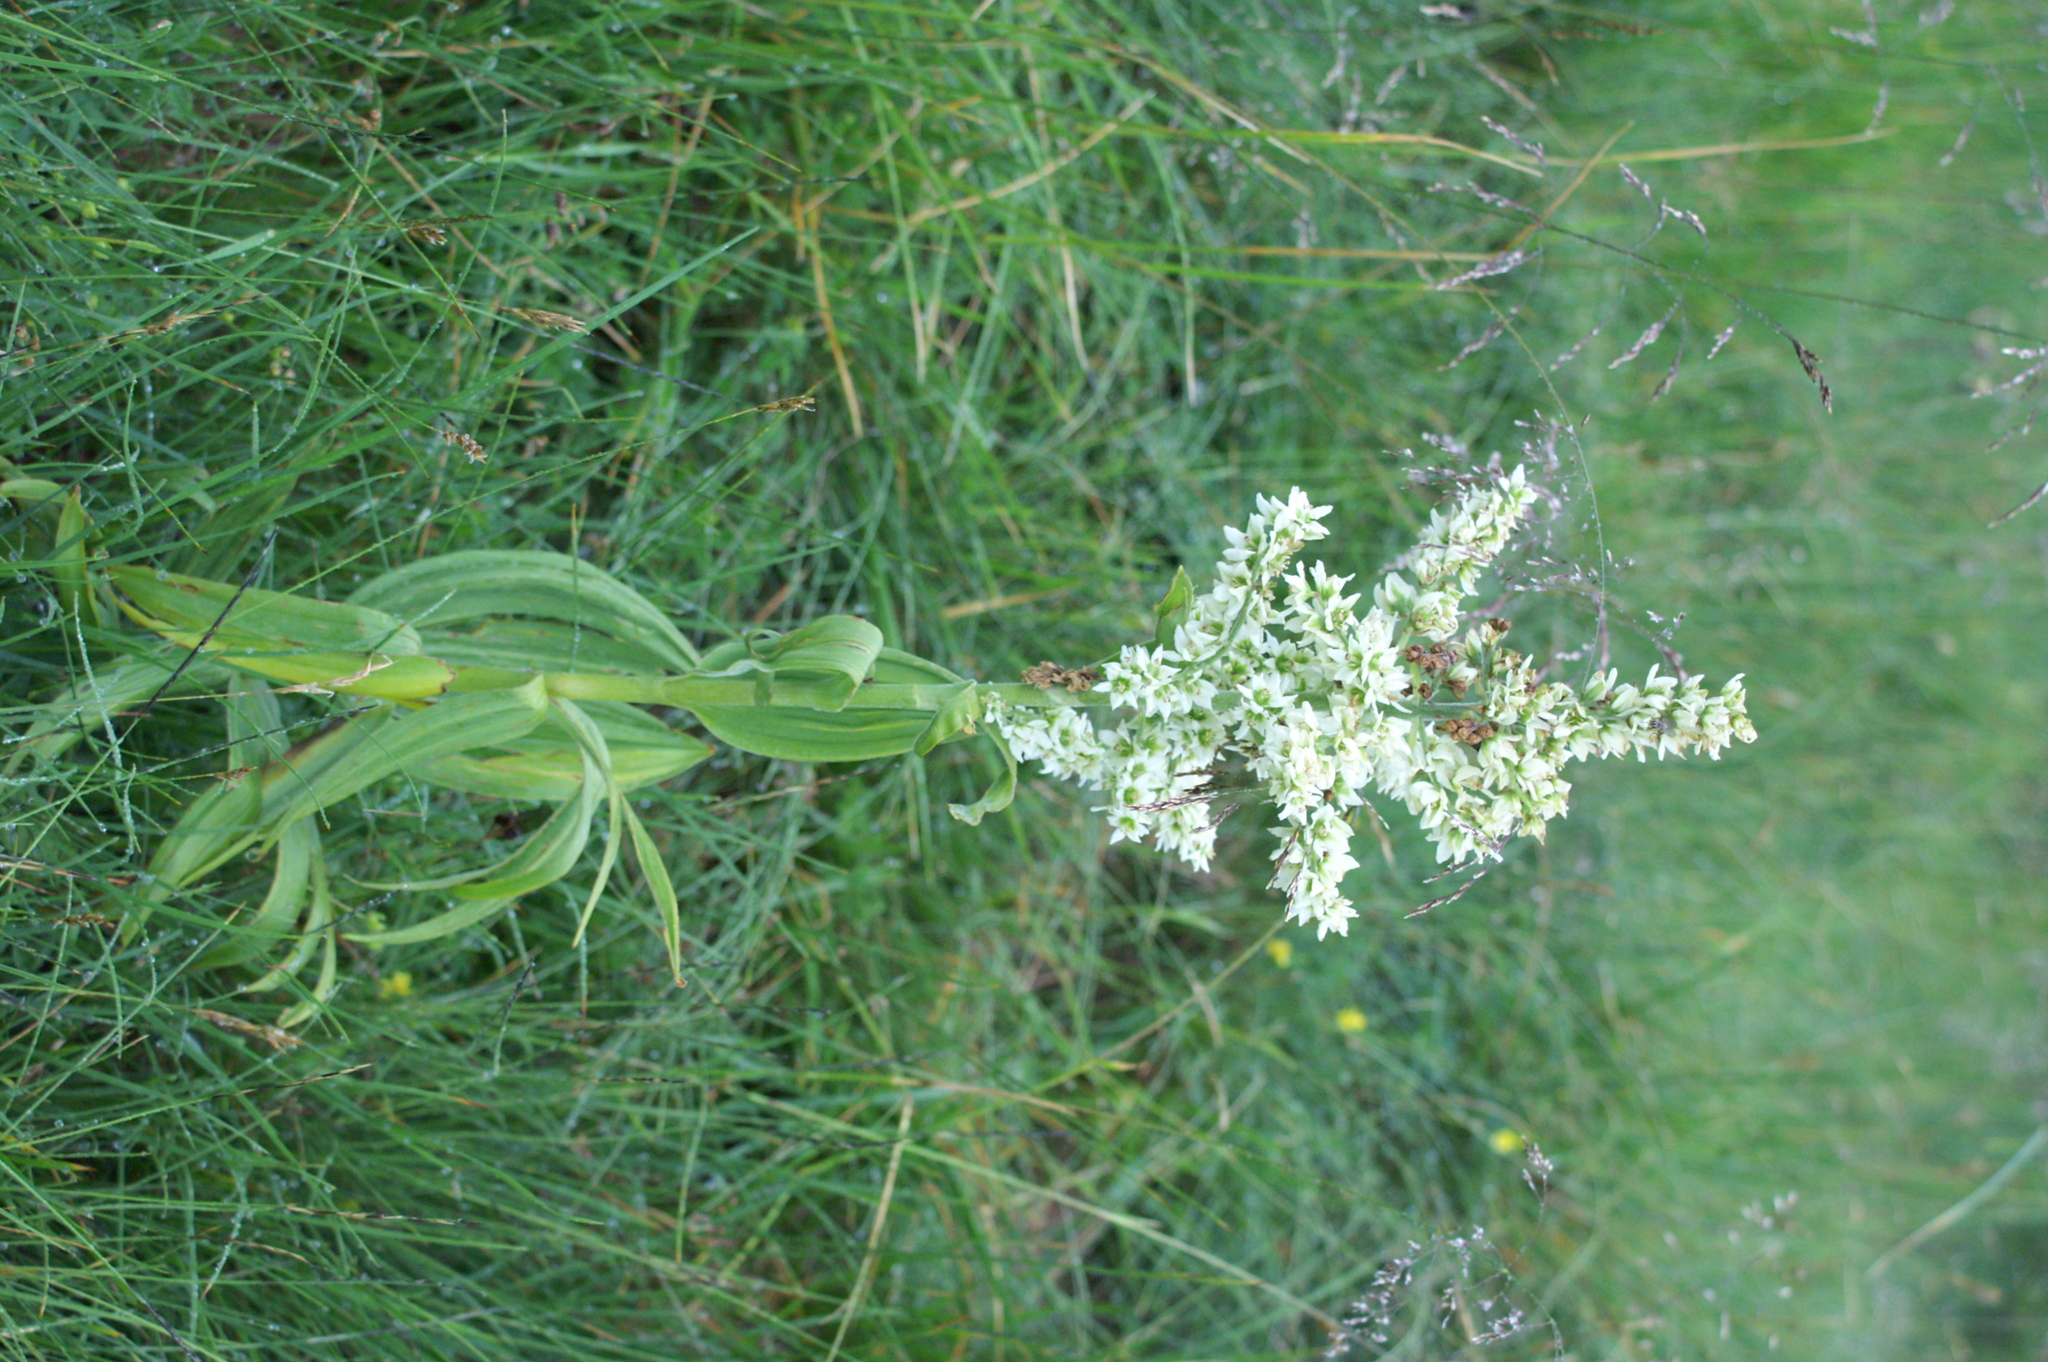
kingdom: Plantae
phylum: Tracheophyta
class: Liliopsida
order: Liliales
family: Melanthiaceae
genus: Veratrum
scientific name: Veratrum album
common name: White veratrum
